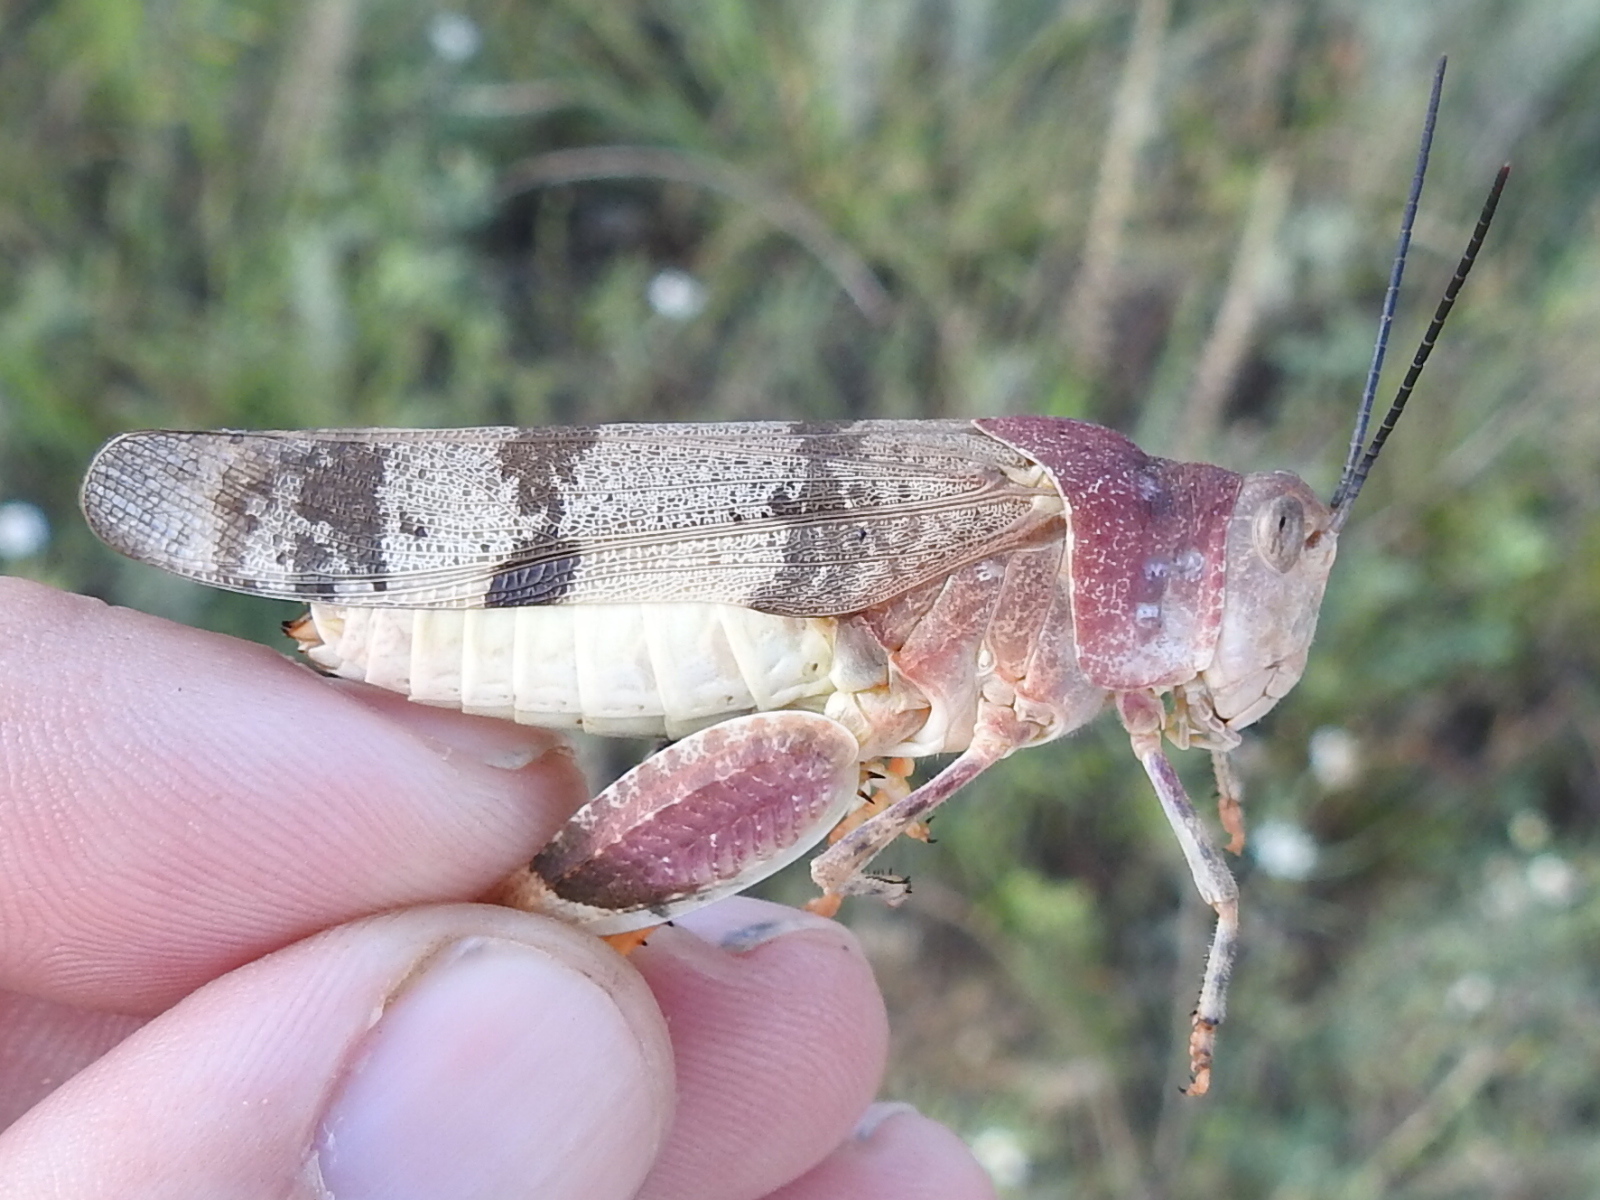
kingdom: Animalia
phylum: Arthropoda
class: Insecta
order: Orthoptera
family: Acrididae
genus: Hadrotettix
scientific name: Hadrotettix trifasciatus
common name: Threebanded grasshopper
